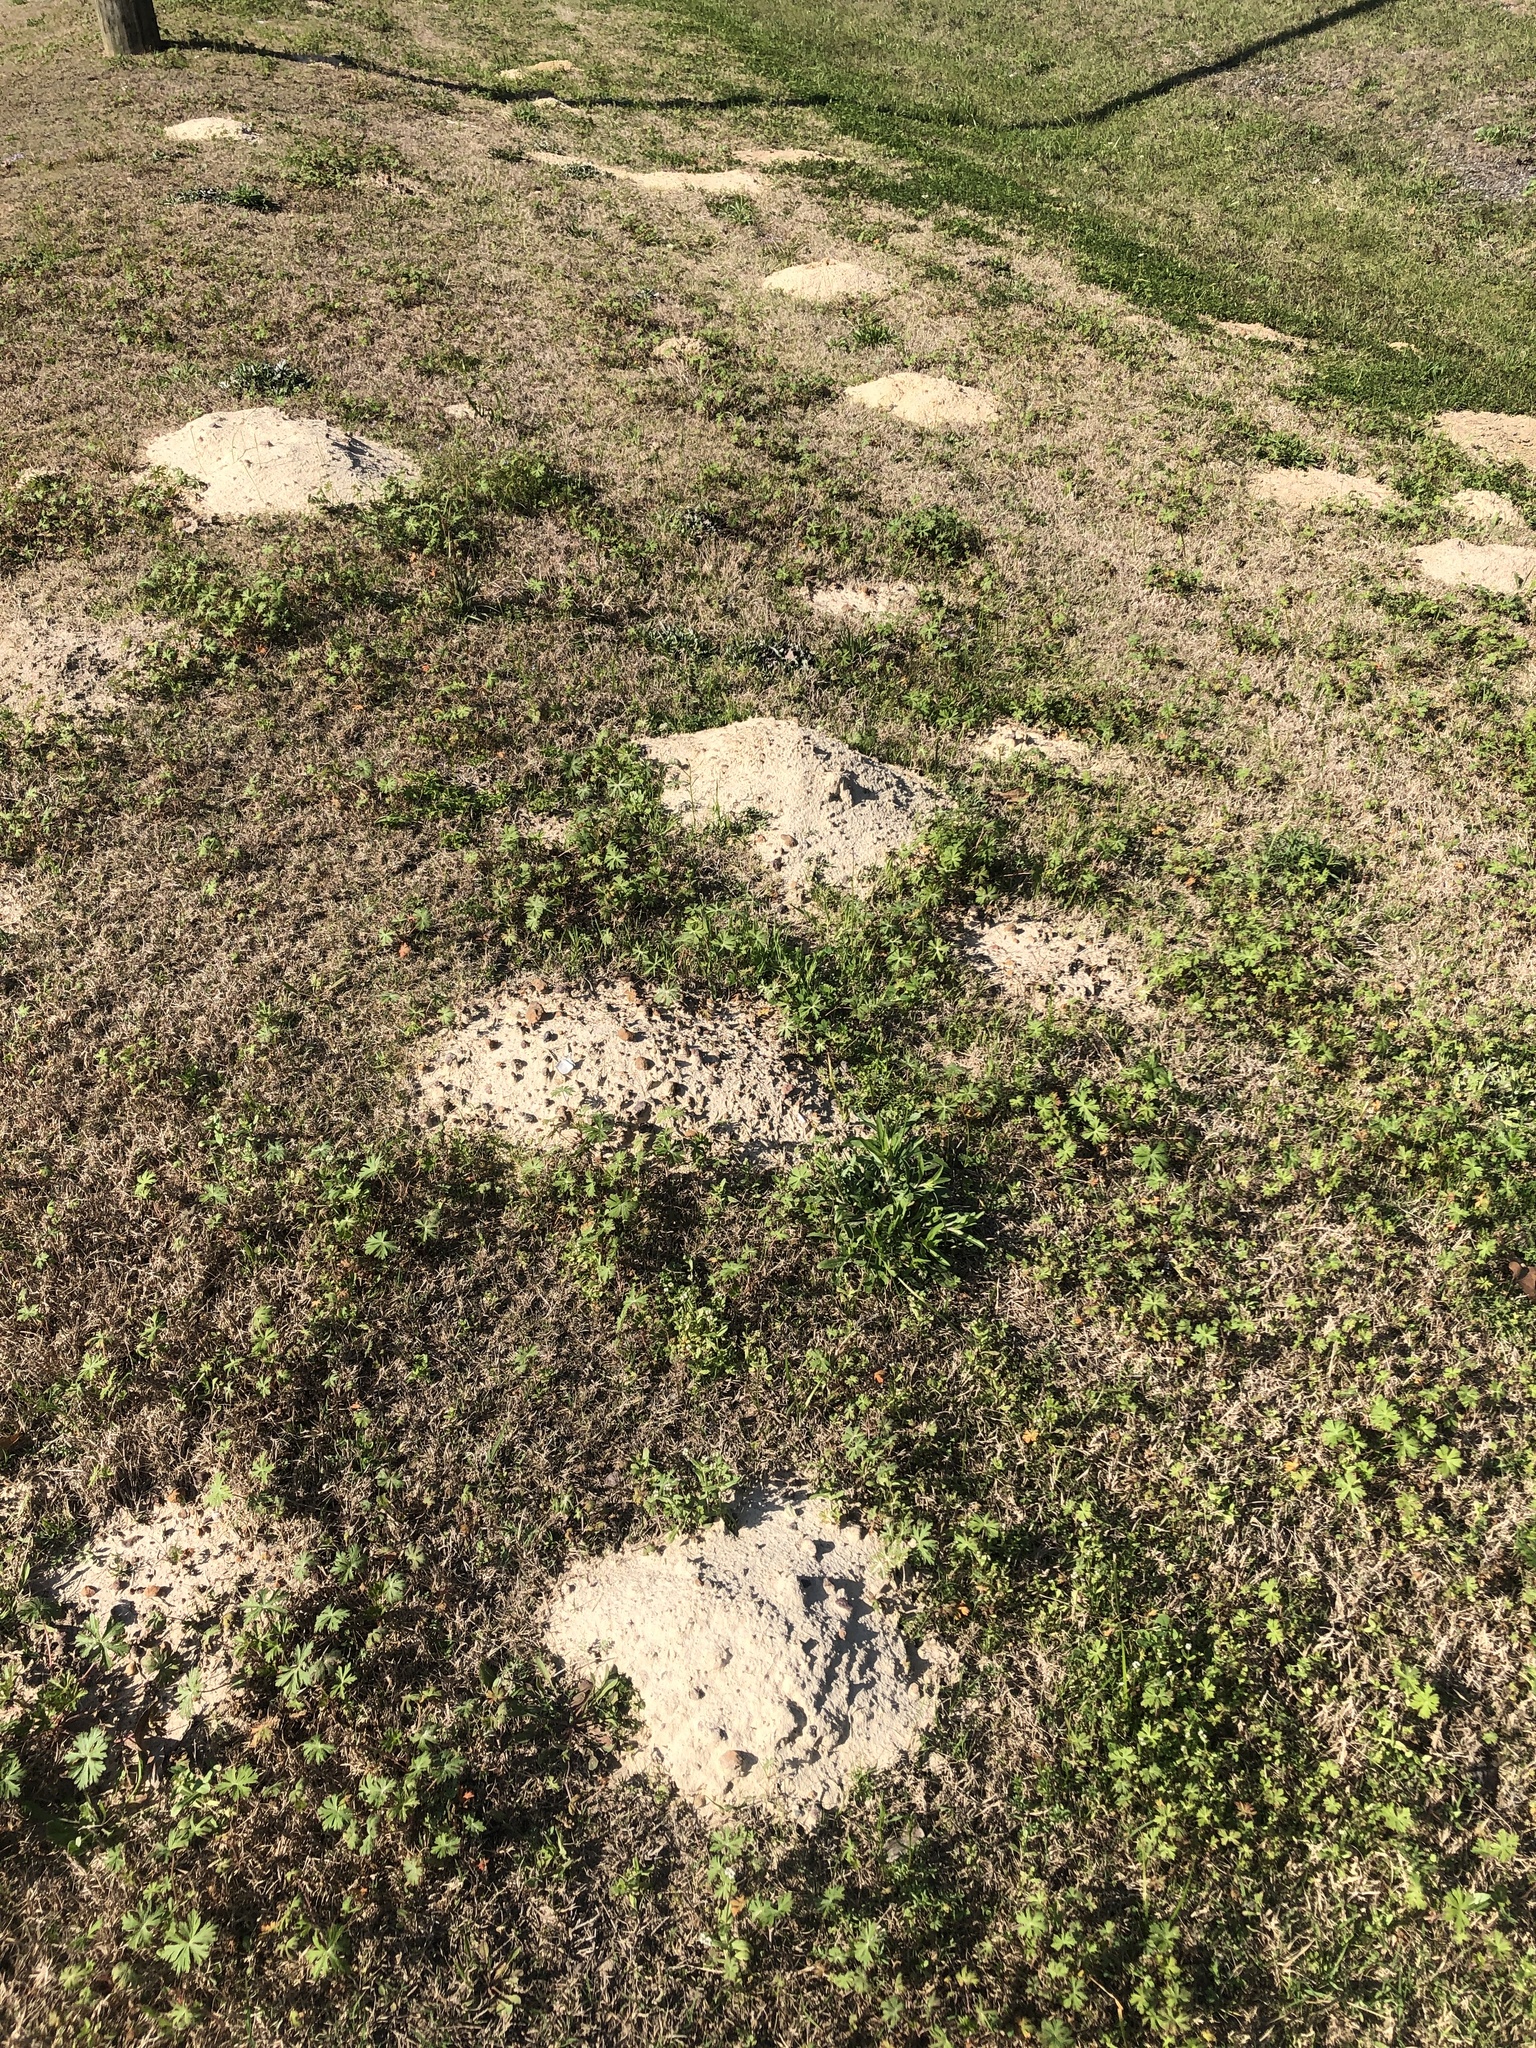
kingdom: Animalia
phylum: Chordata
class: Mammalia
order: Rodentia
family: Geomyidae
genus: Geomys
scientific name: Geomys breviceps
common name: Baird's pocket gopher
